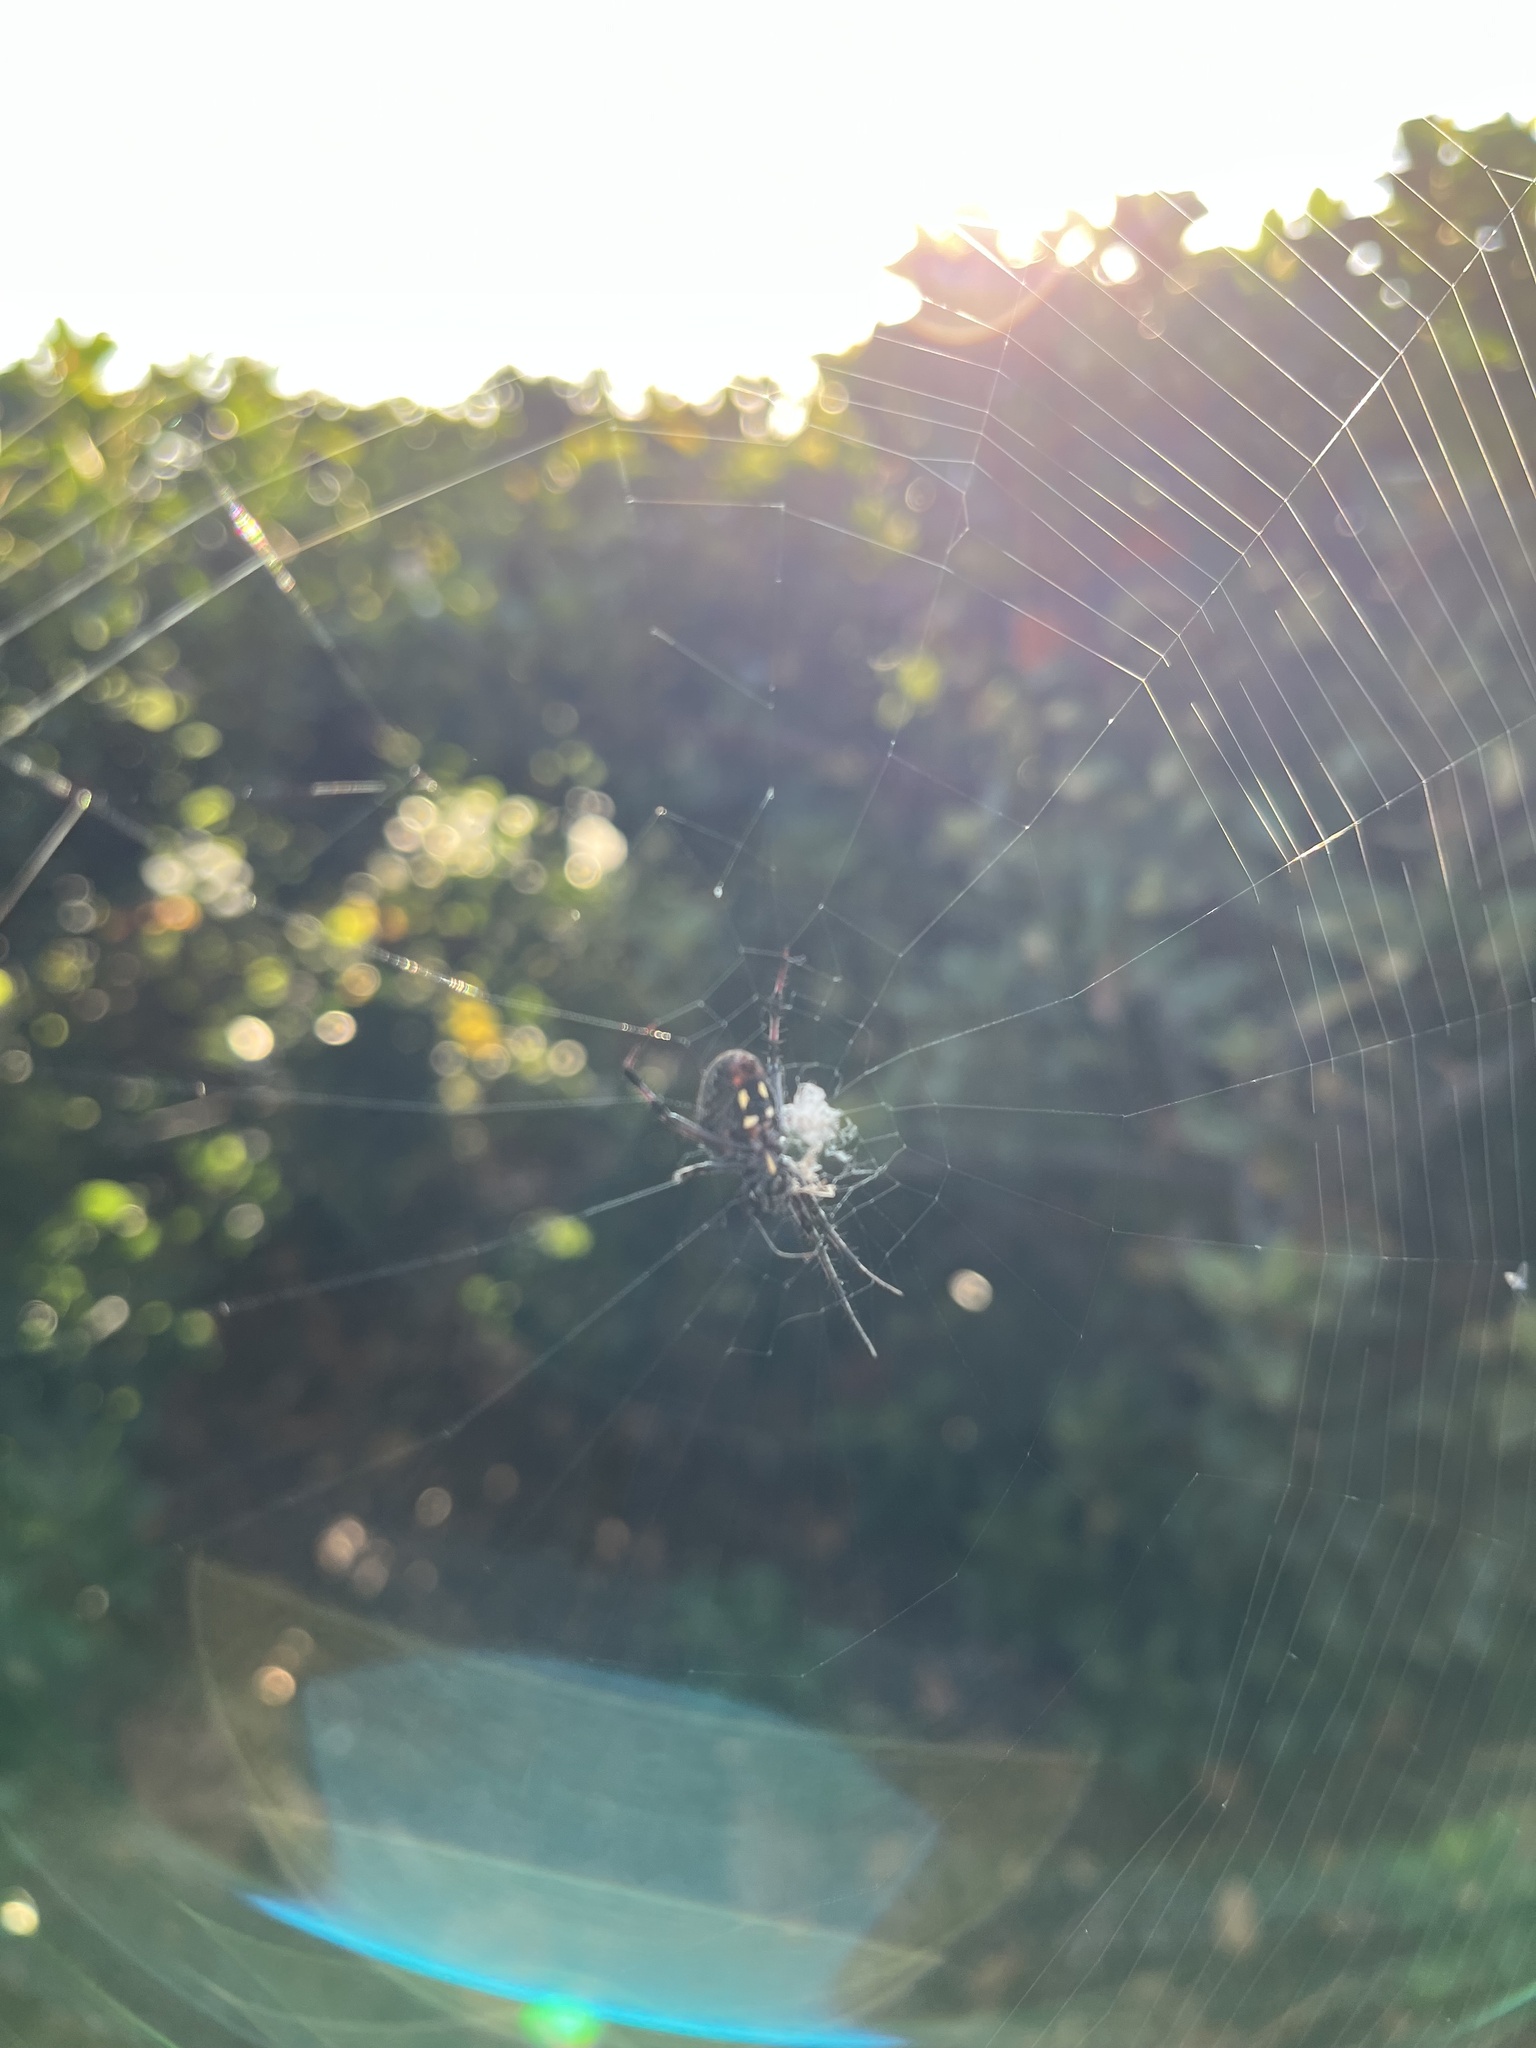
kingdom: Animalia
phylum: Arthropoda
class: Arachnida
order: Araneae
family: Araneidae
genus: Neoscona
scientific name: Neoscona oaxacensis
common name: Orb weavers
